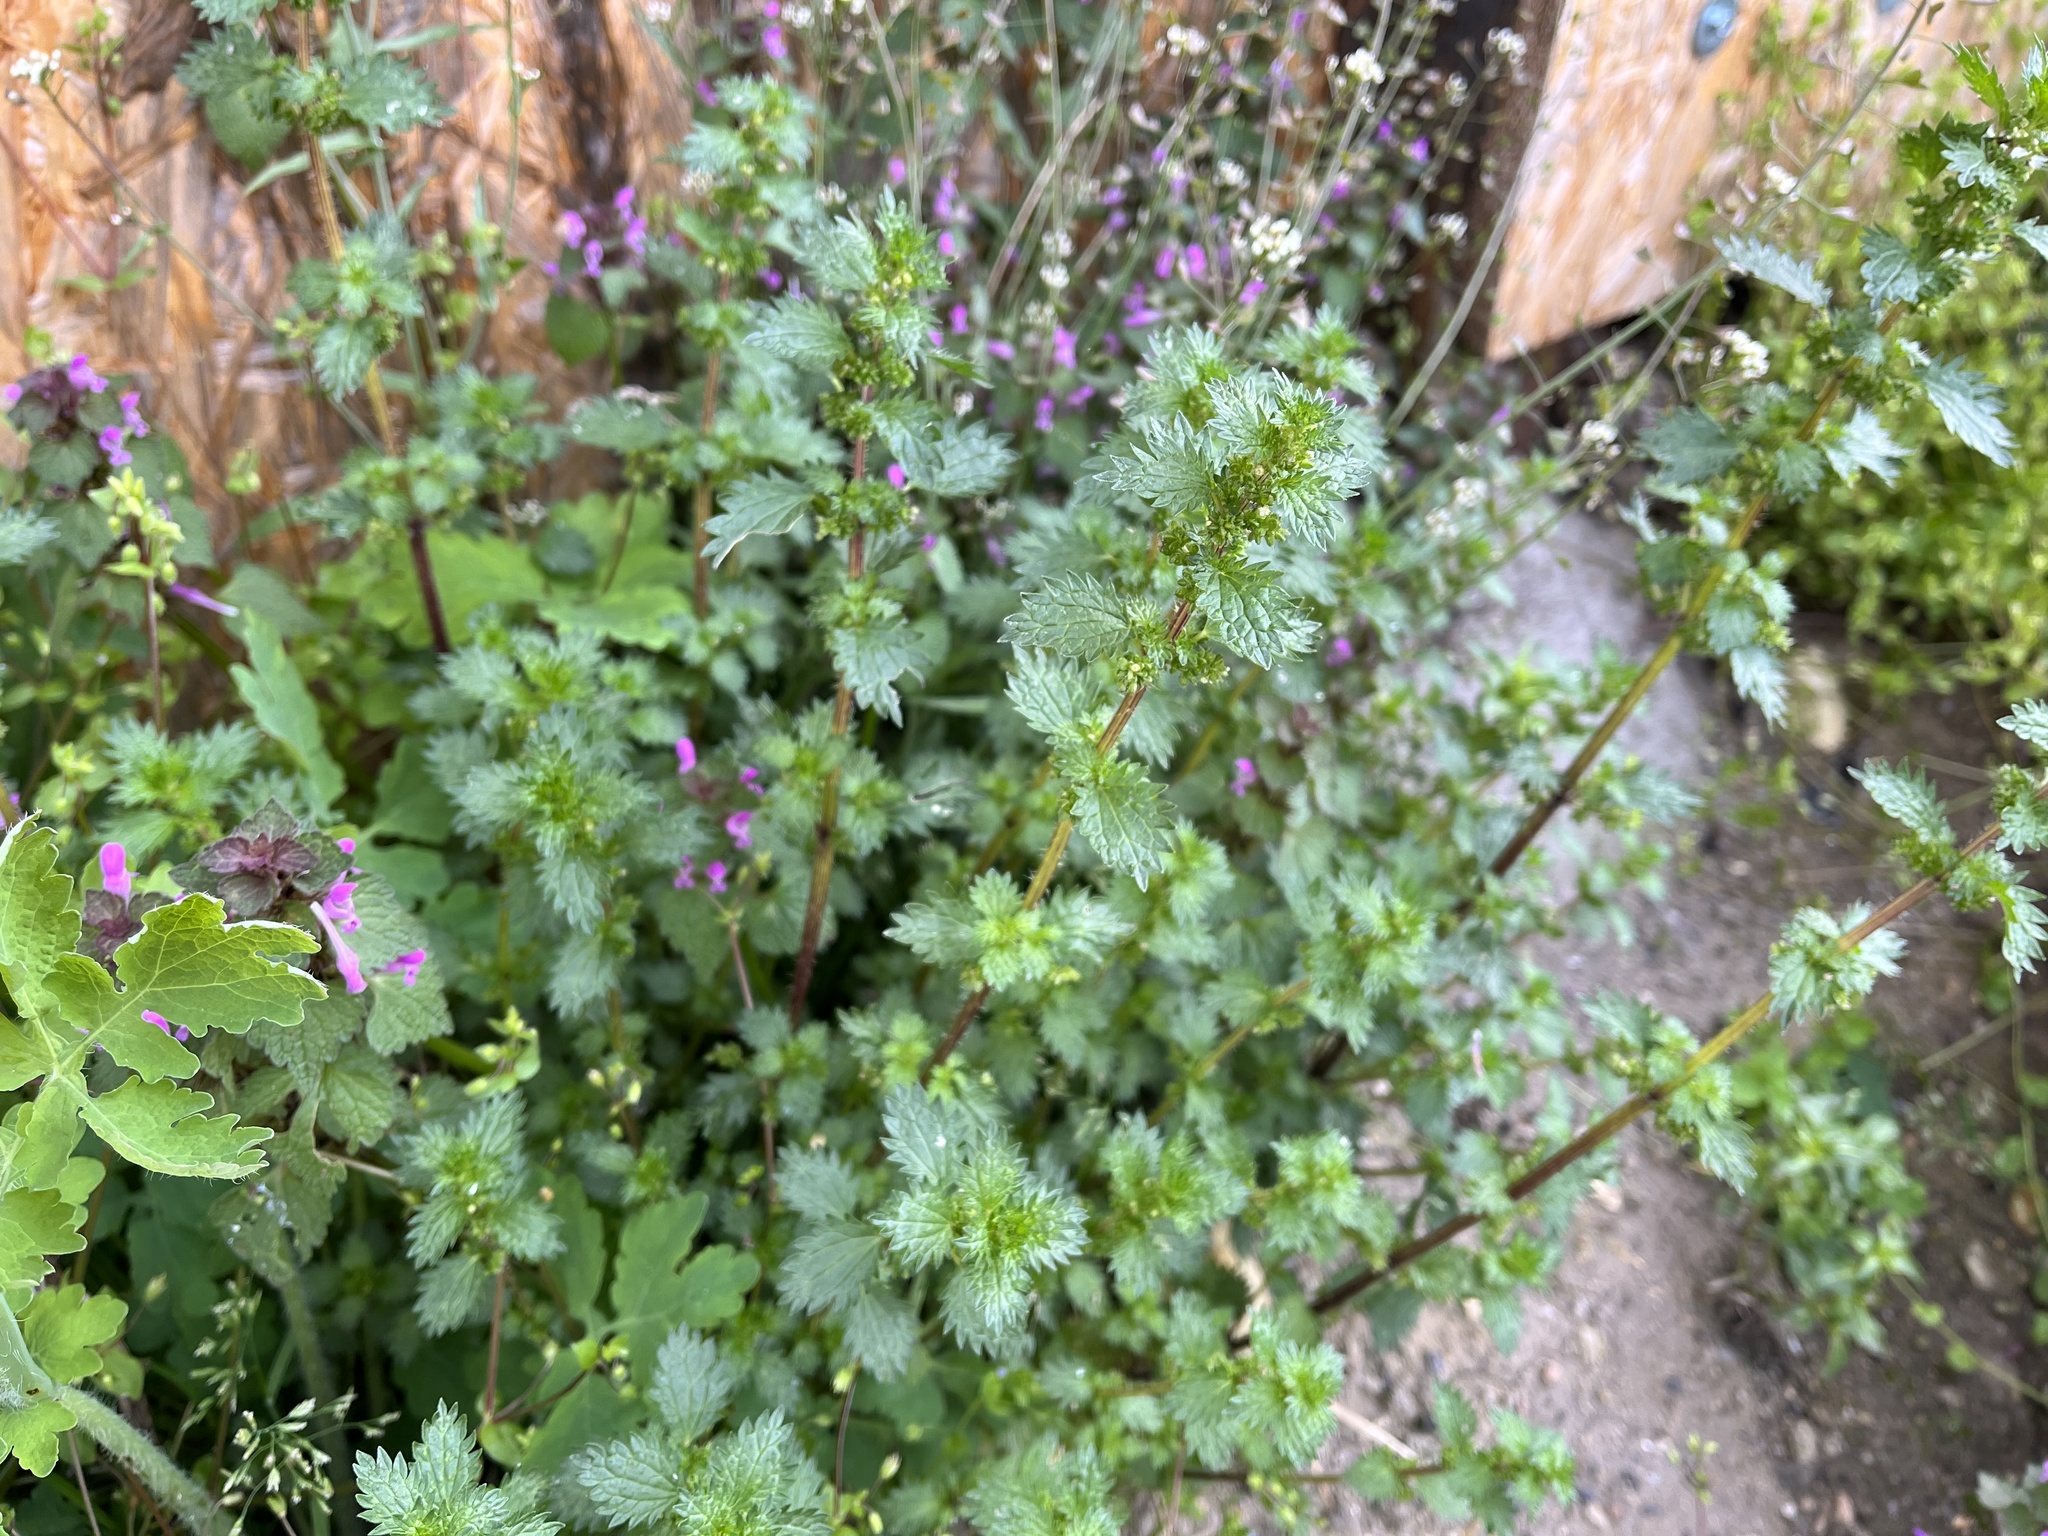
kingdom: Plantae
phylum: Tracheophyta
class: Magnoliopsida
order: Rosales
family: Urticaceae
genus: Urtica
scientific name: Urtica urens
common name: Dwarf nettle
